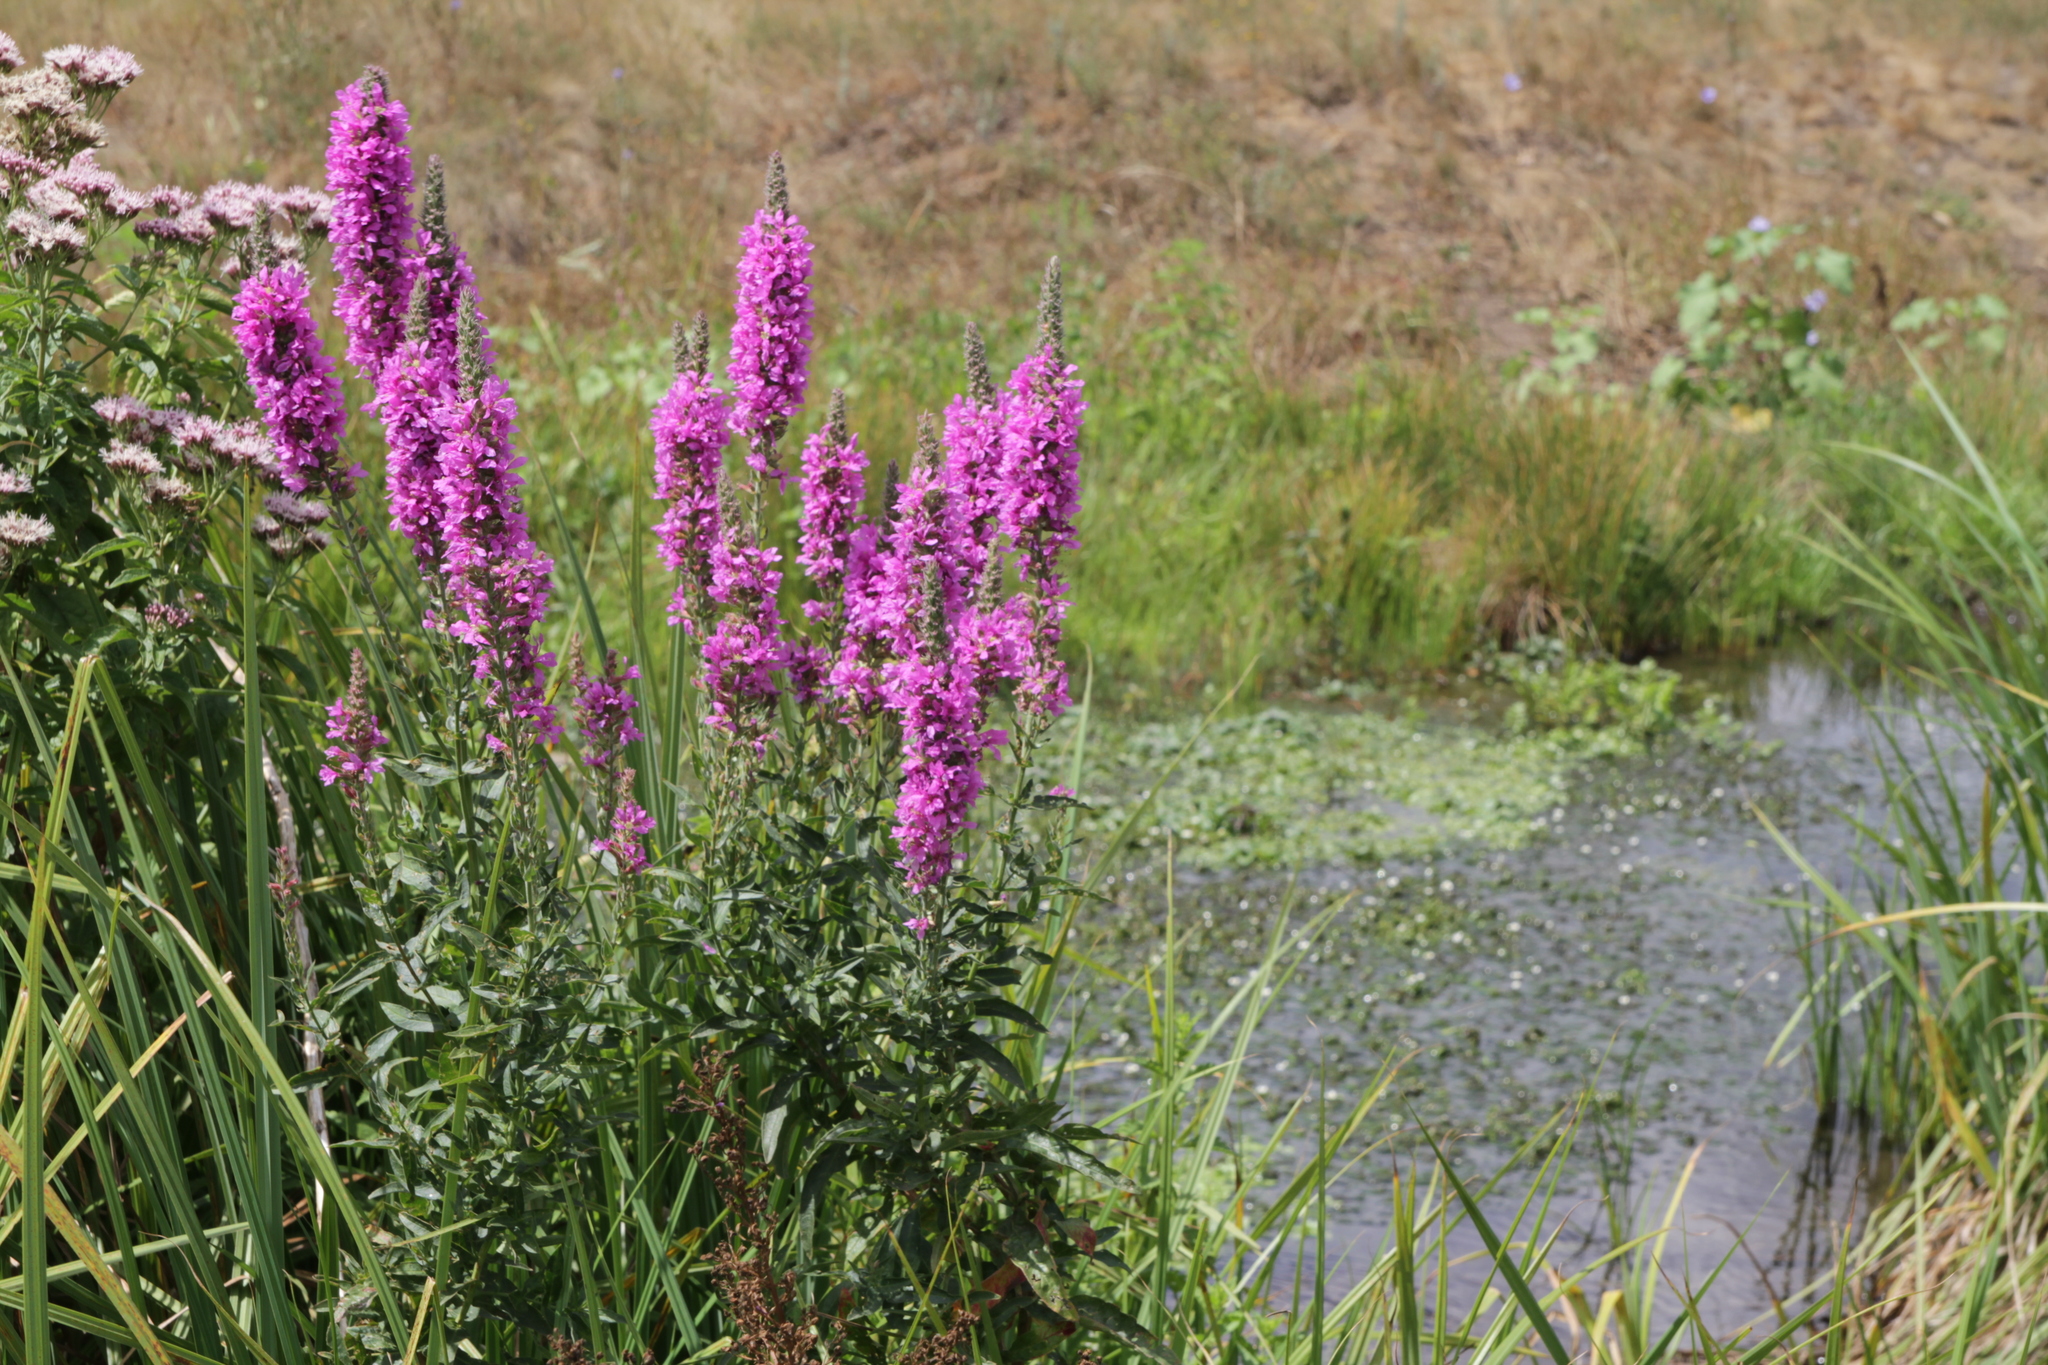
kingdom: Plantae
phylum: Tracheophyta
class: Magnoliopsida
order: Myrtales
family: Lythraceae
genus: Lythrum
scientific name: Lythrum salicaria
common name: Purple loosestrife
